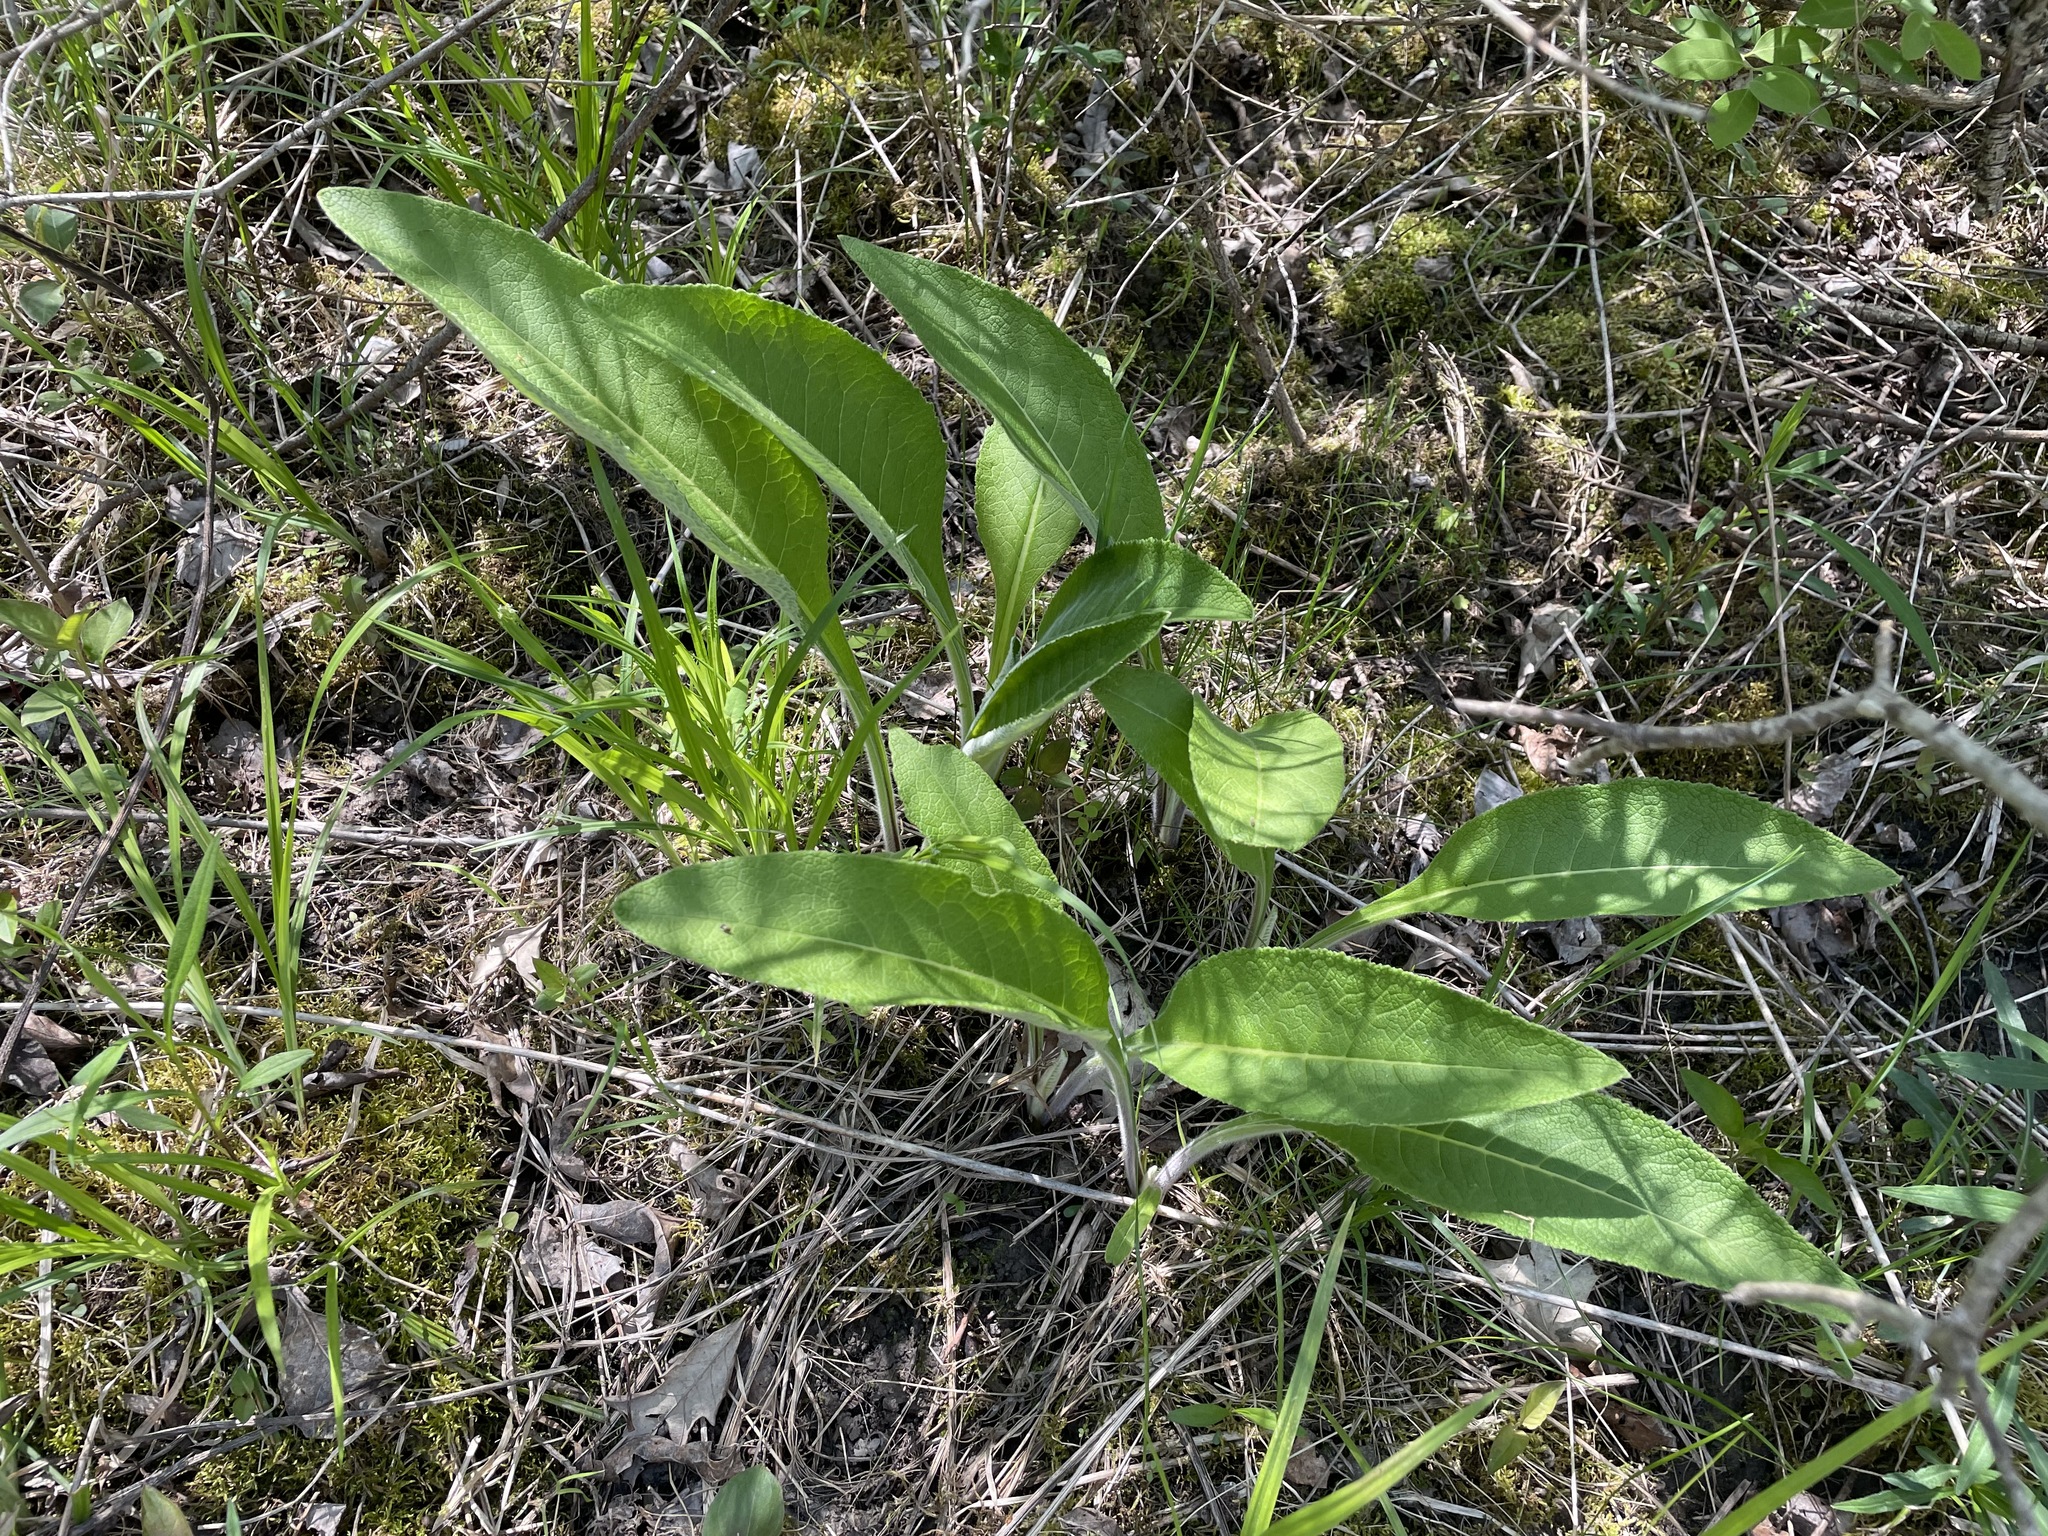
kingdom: Plantae
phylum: Tracheophyta
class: Magnoliopsida
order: Asterales
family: Asteraceae
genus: Inula
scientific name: Inula helenium
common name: Elecampane
